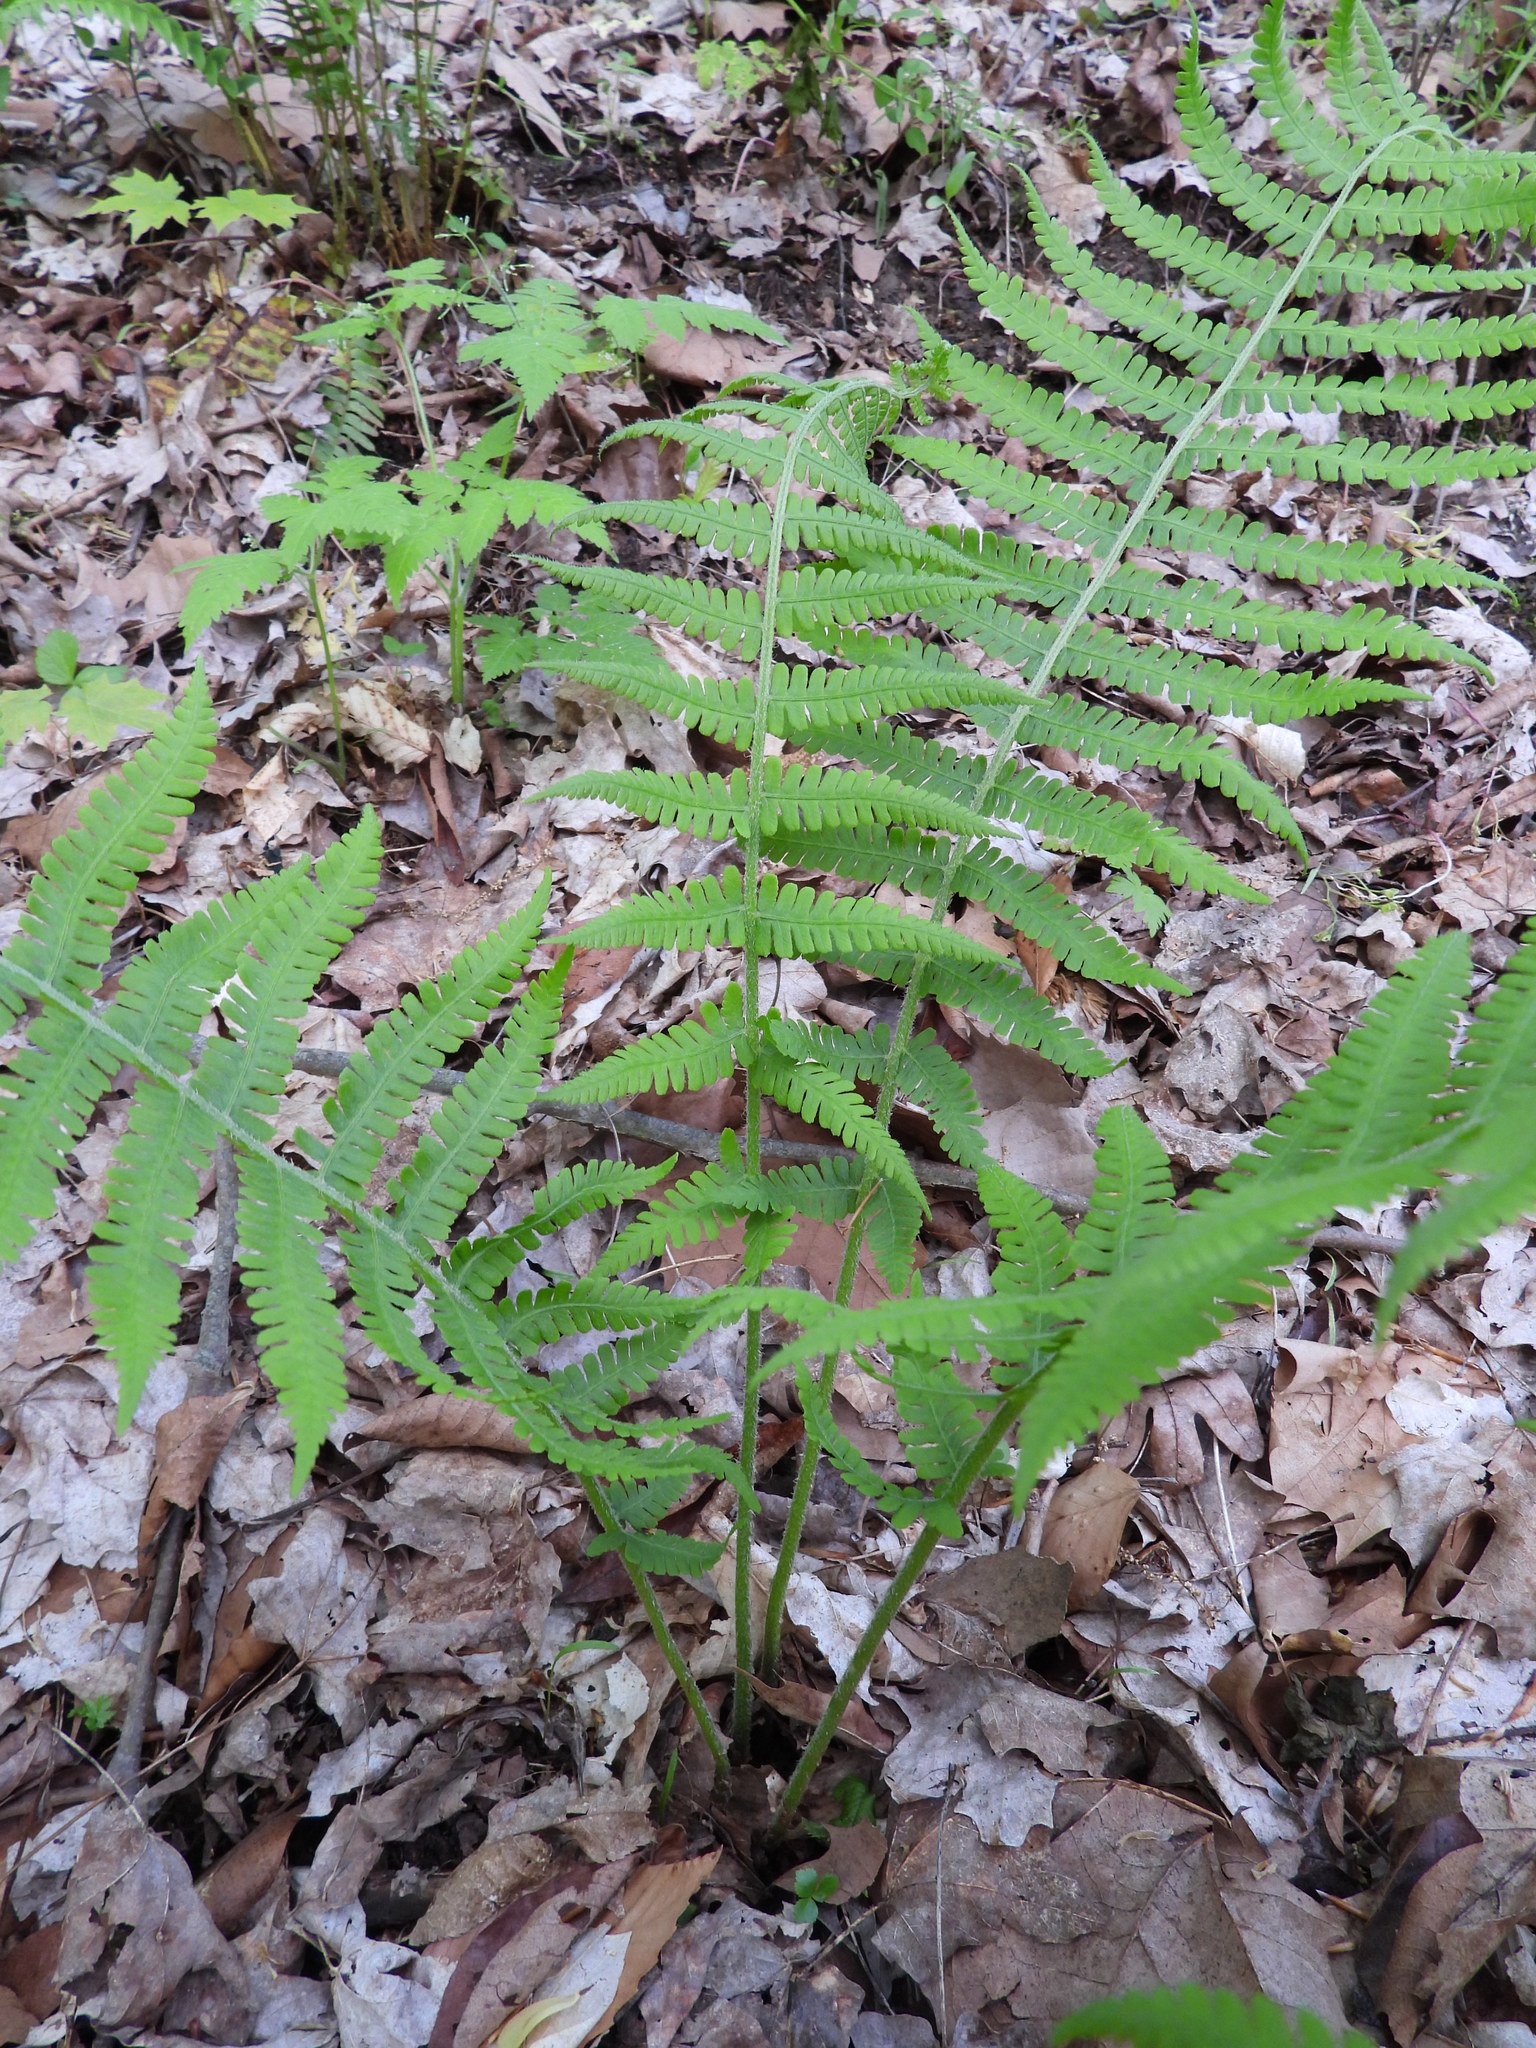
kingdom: Plantae
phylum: Tracheophyta
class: Polypodiopsida
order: Polypodiales
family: Athyriaceae
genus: Deparia
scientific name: Deparia acrostichoides
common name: Silver false spleenwort
